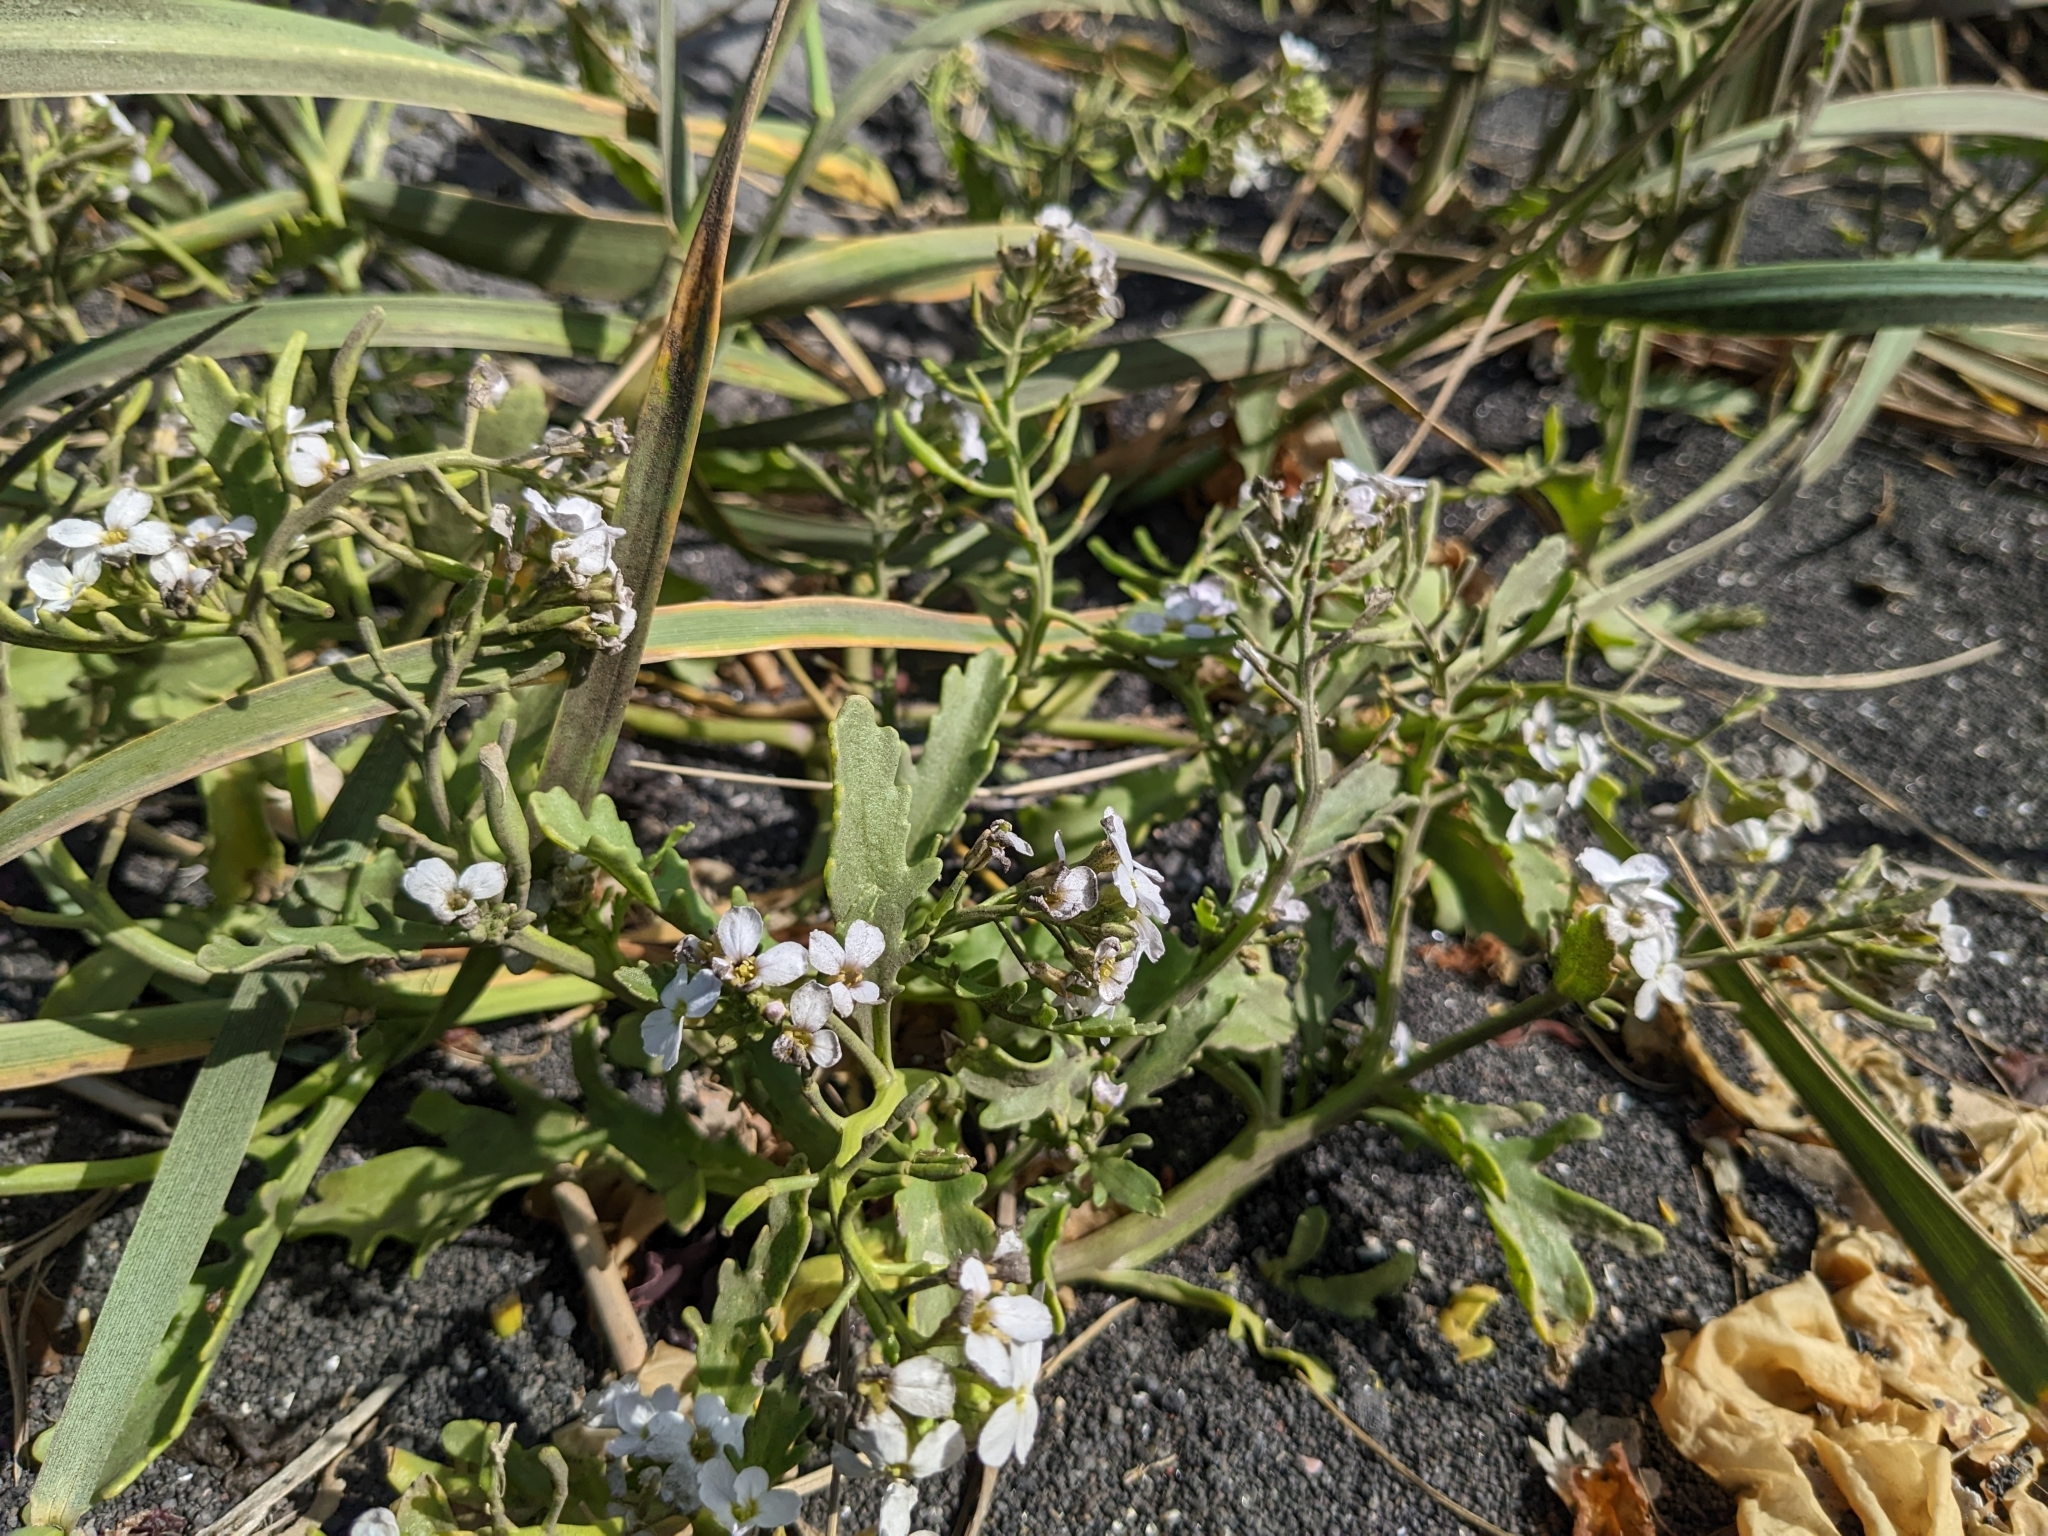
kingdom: Plantae
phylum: Tracheophyta
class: Magnoliopsida
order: Brassicales
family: Brassicaceae
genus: Cakile
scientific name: Cakile arctica
